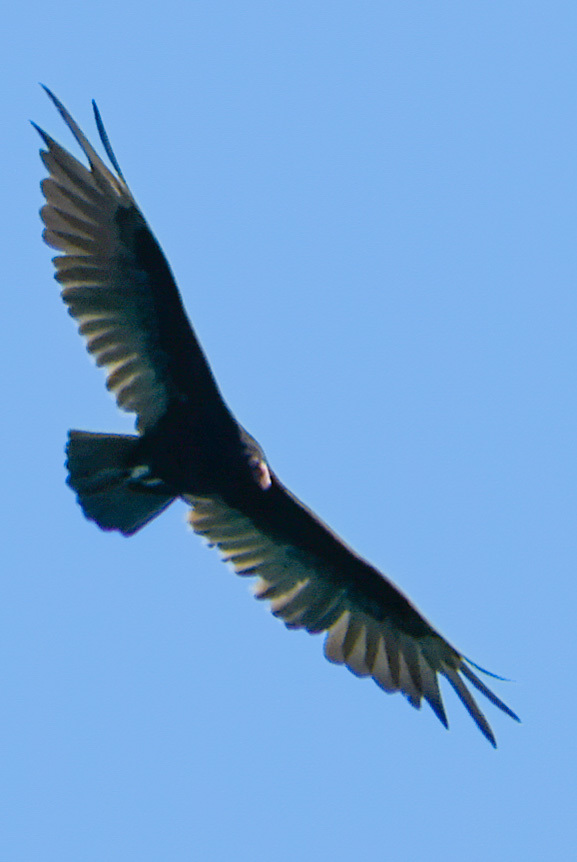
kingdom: Animalia
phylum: Chordata
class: Aves
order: Accipitriformes
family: Cathartidae
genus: Cathartes
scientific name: Cathartes aura
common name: Turkey vulture
